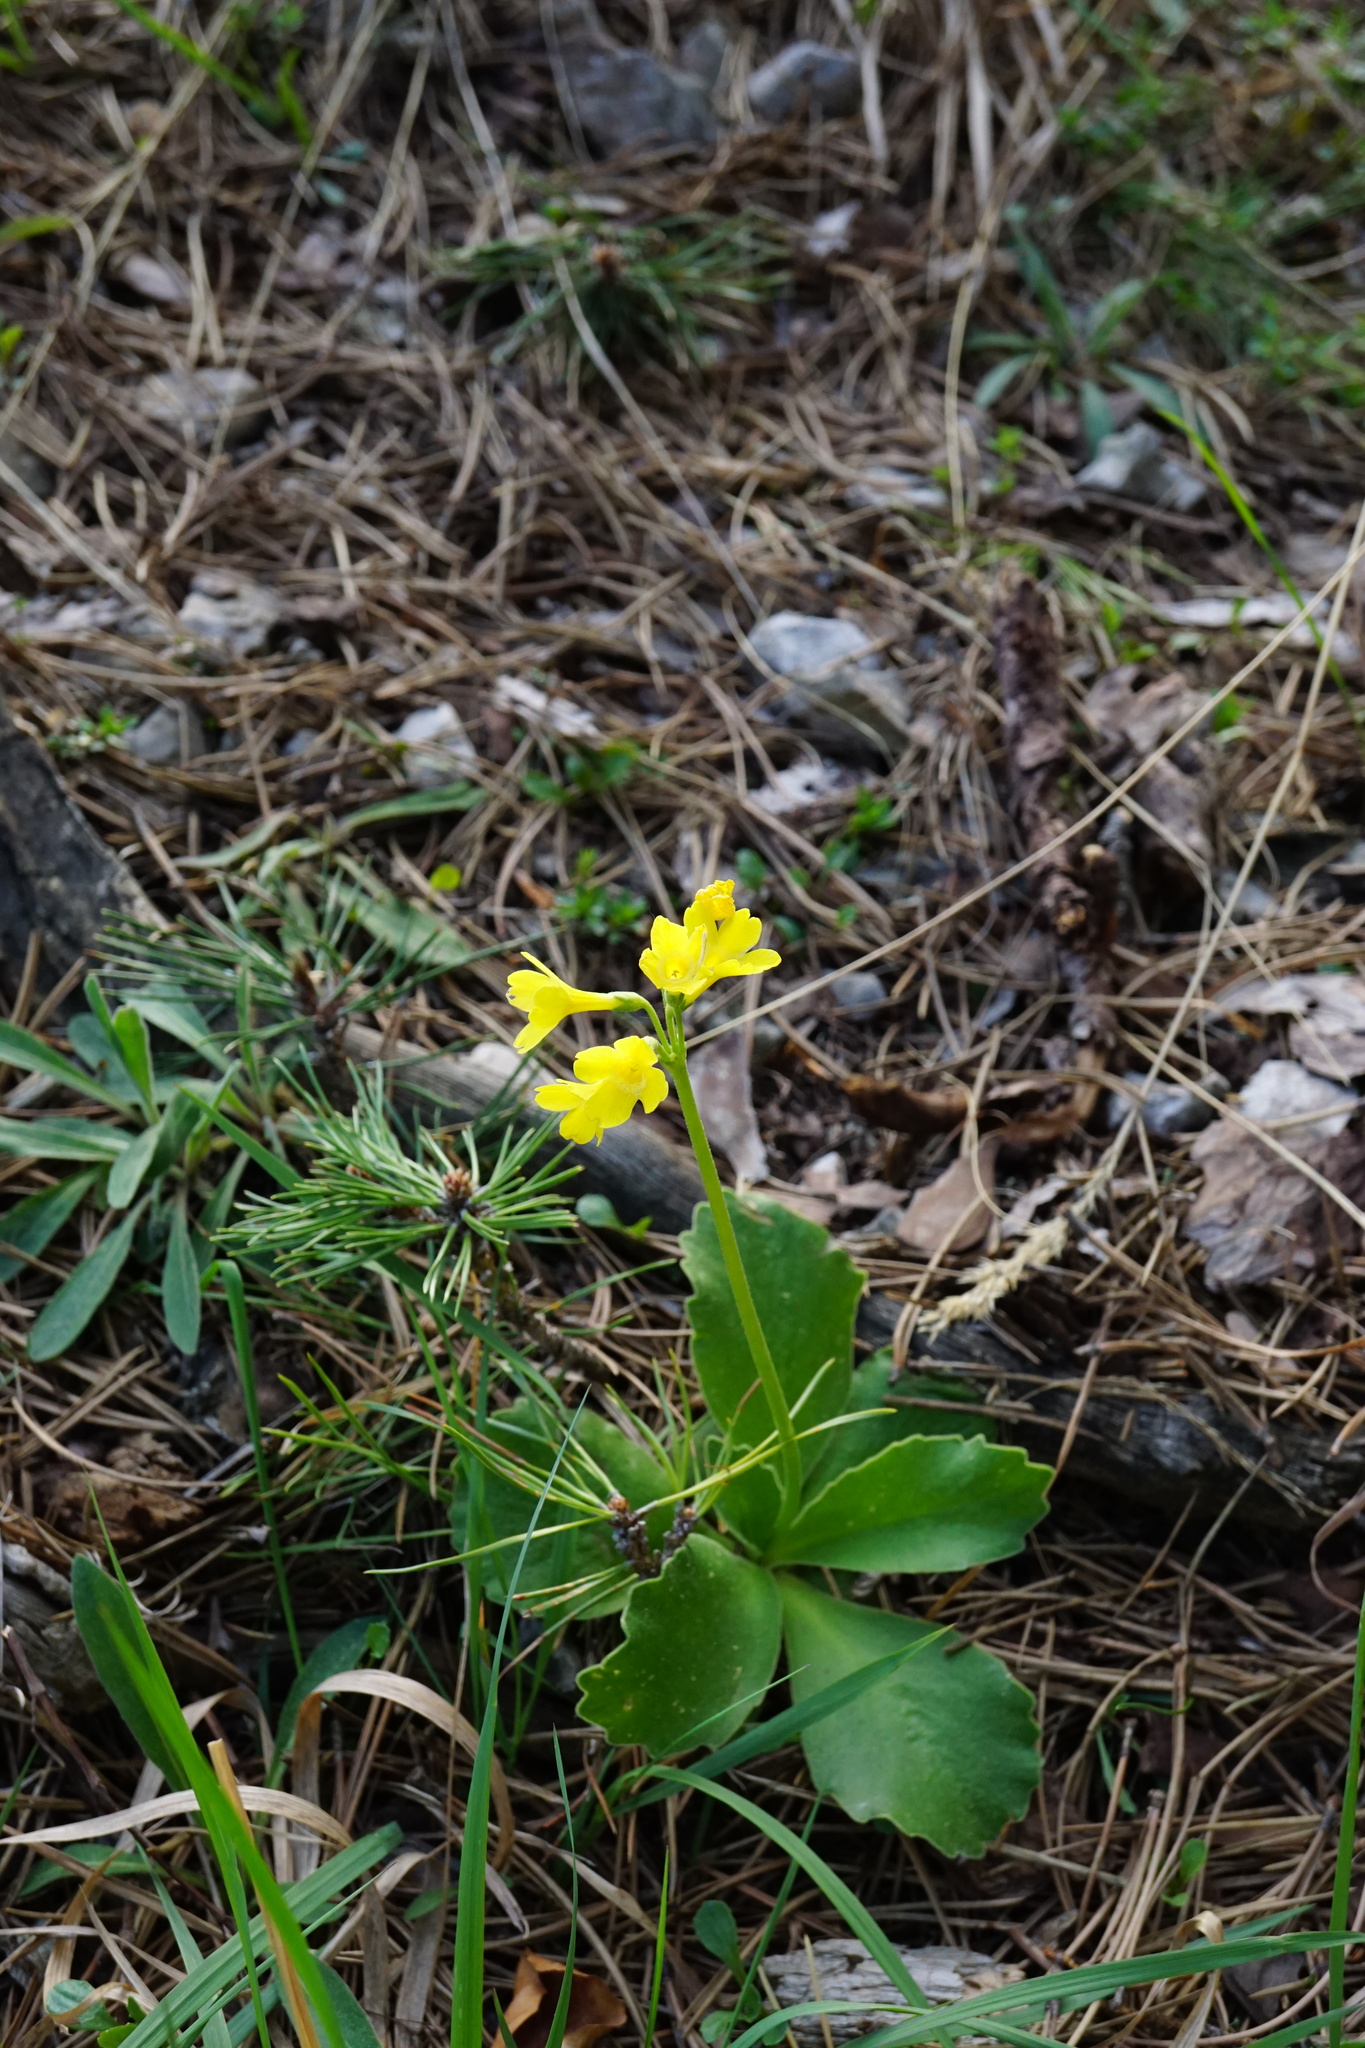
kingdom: Plantae
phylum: Tracheophyta
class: Magnoliopsida
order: Ericales
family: Primulaceae
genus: Primula
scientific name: Primula auricula
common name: Auricula
